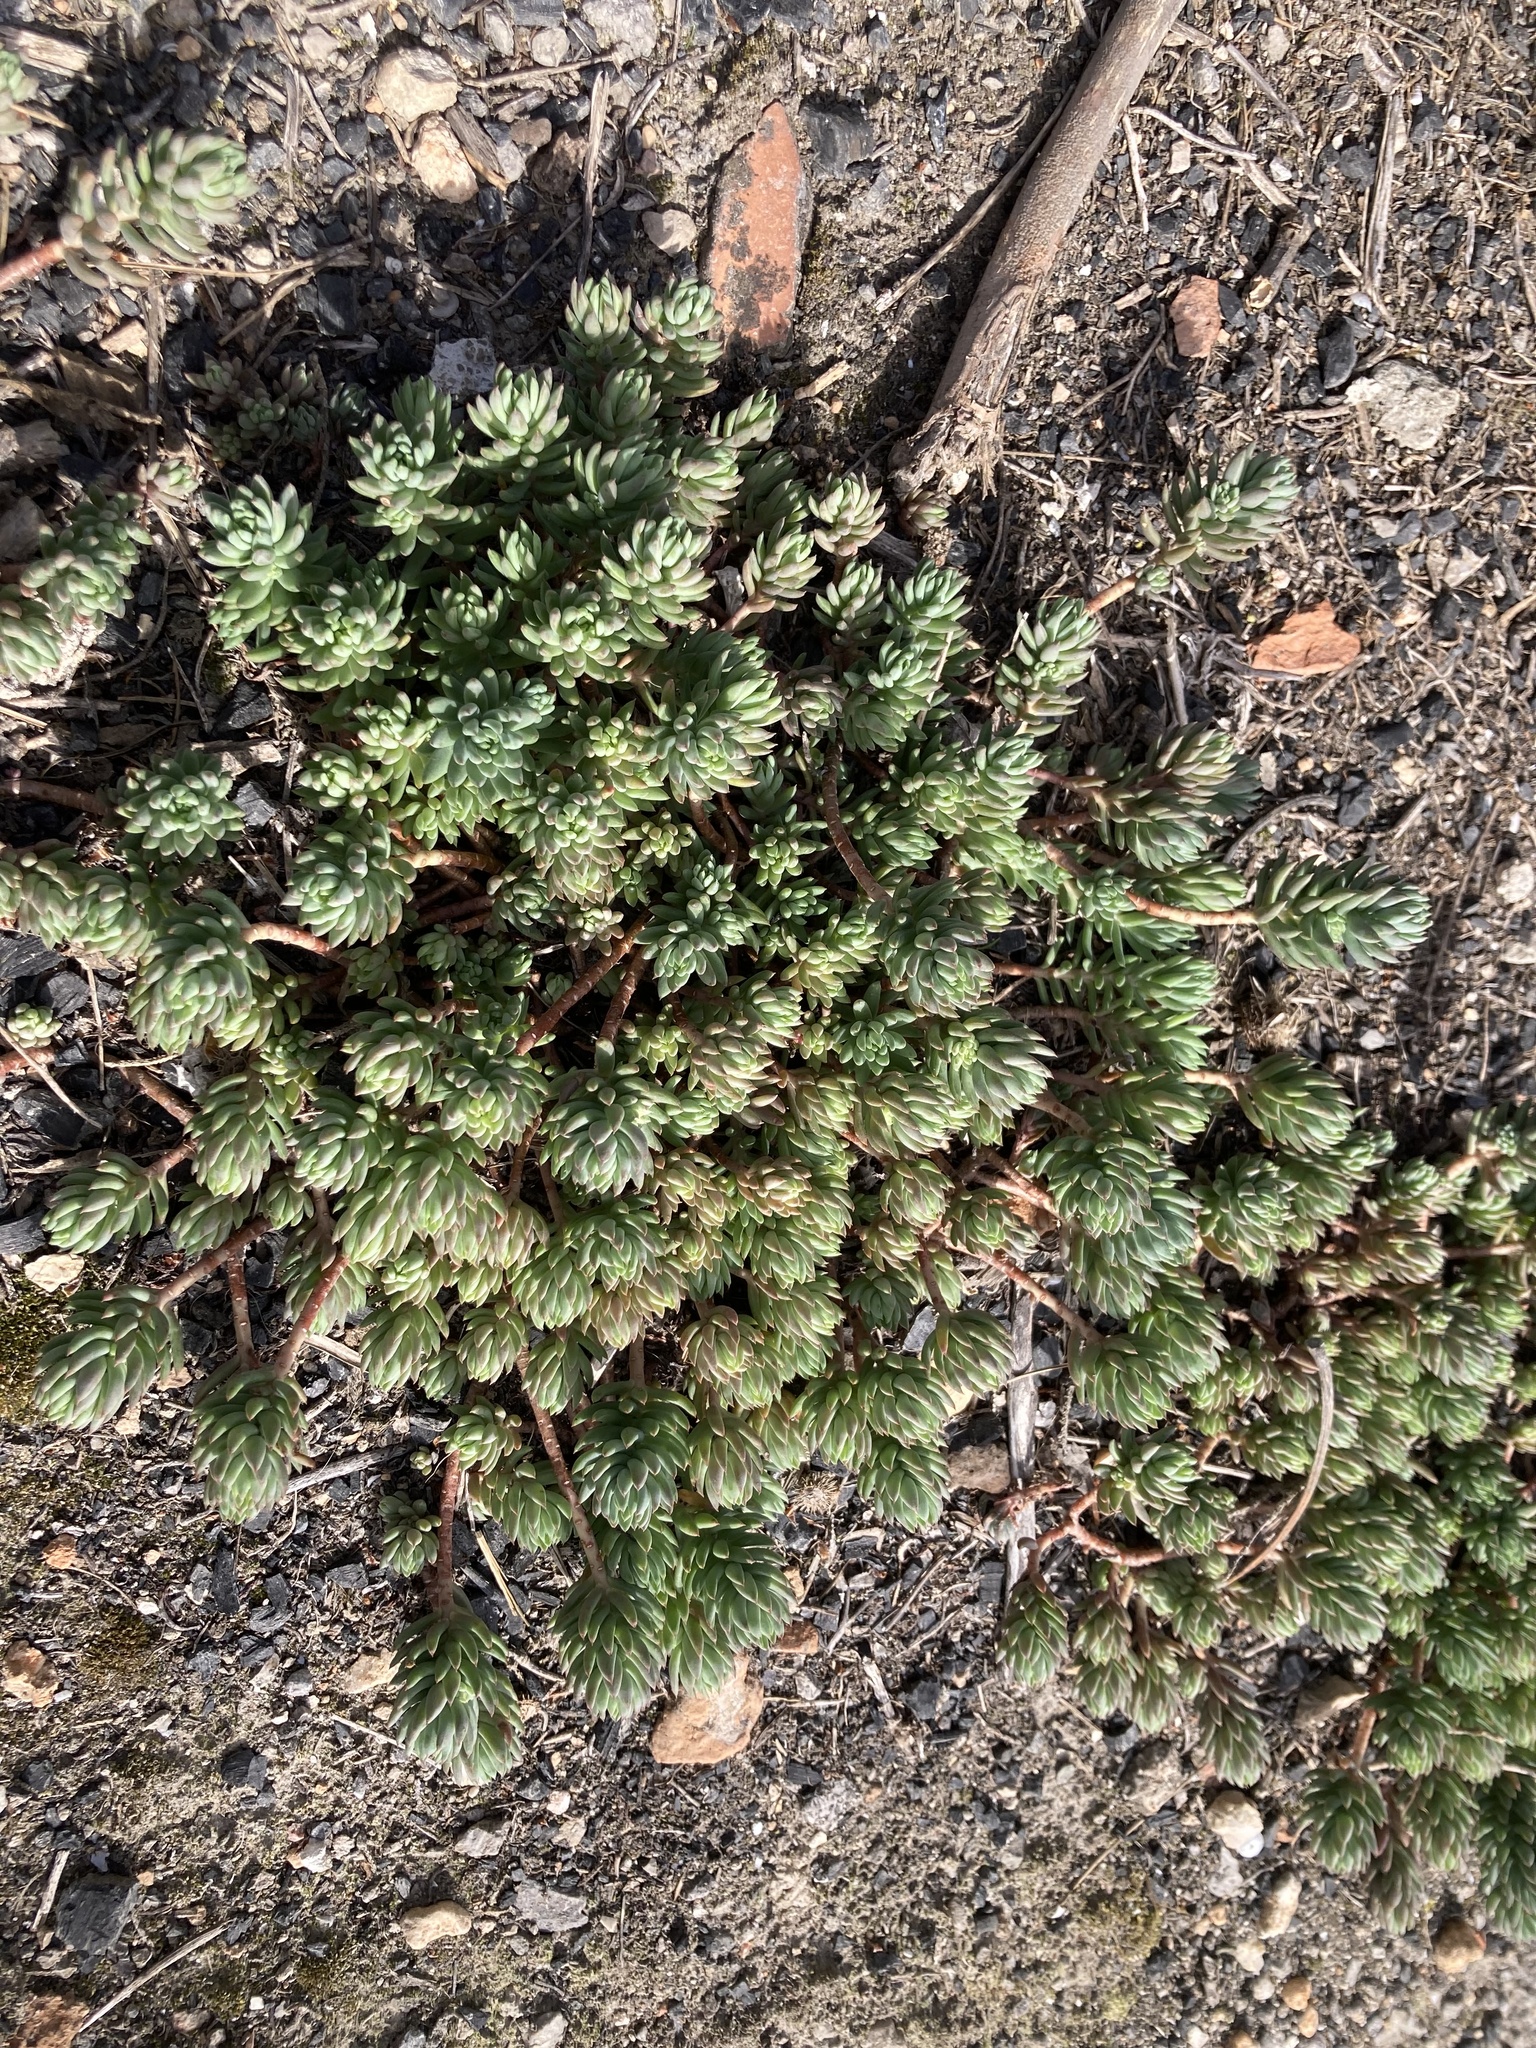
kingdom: Plantae
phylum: Tracheophyta
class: Magnoliopsida
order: Saxifragales
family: Crassulaceae
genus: Petrosedum
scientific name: Petrosedum sediforme
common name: Pale stonecrop
